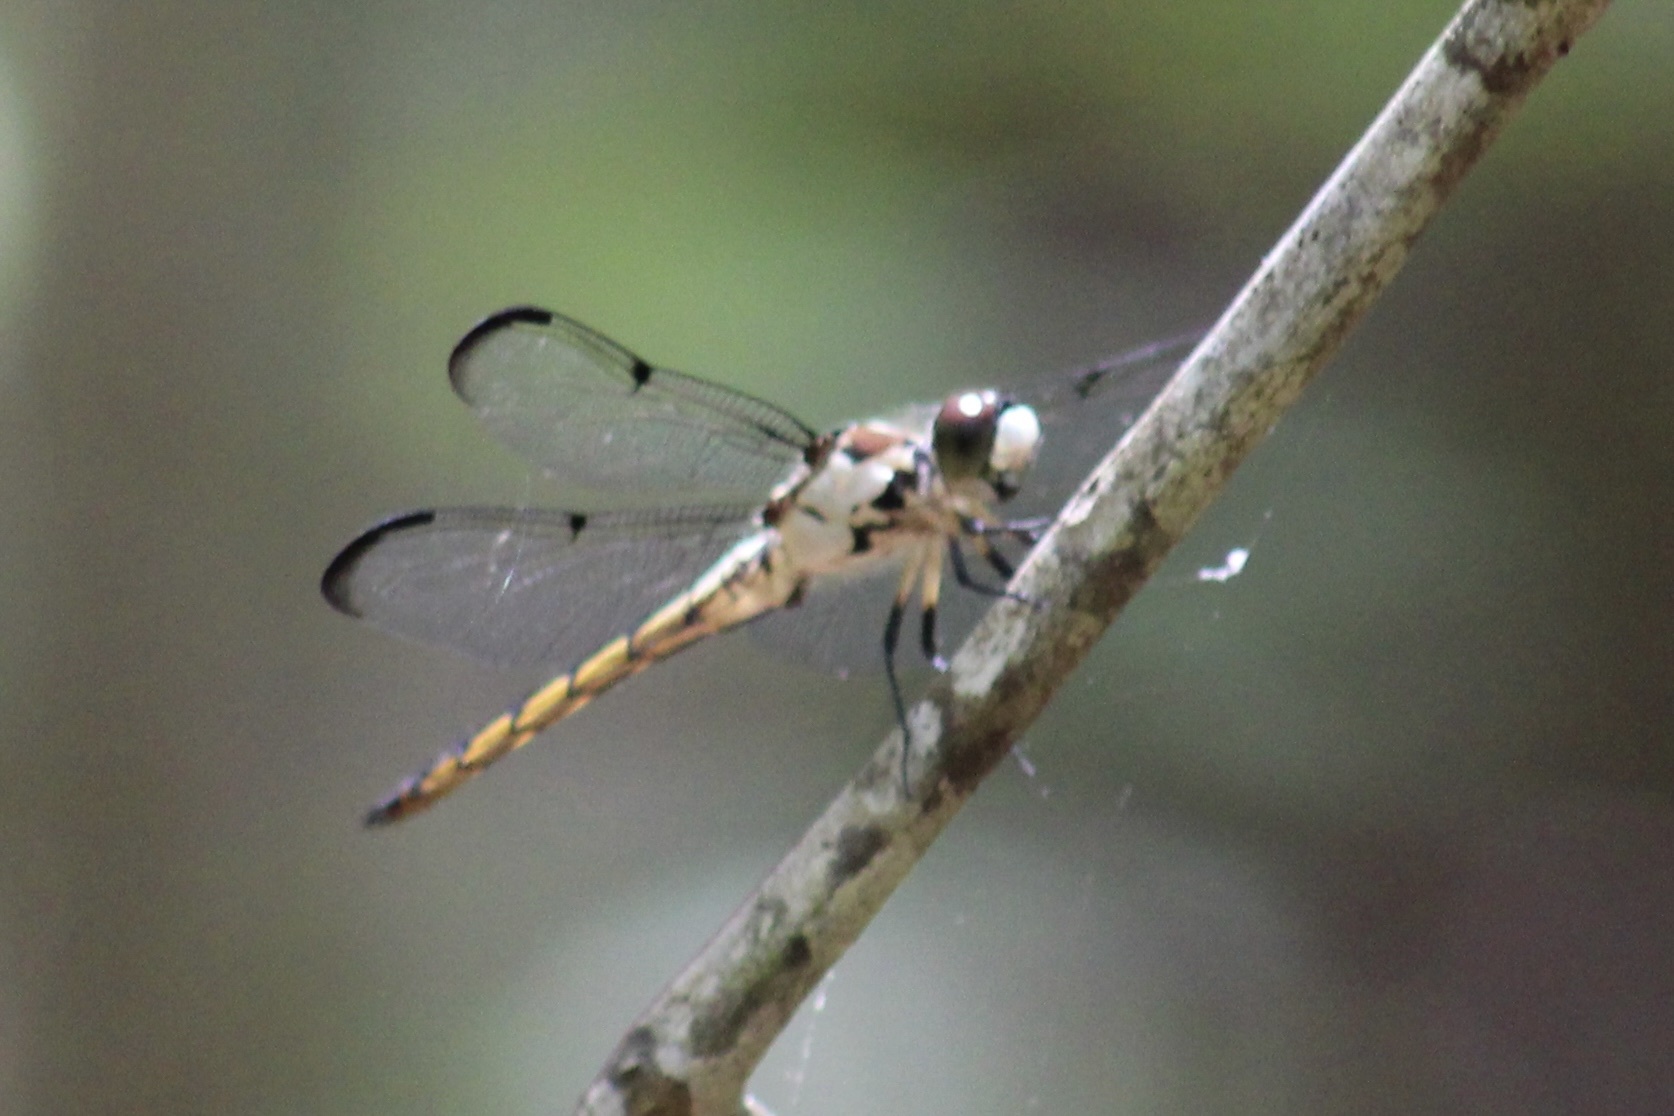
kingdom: Animalia
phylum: Arthropoda
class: Insecta
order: Odonata
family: Libellulidae
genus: Libellula
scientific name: Libellula vibrans
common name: Great blue skimmer
